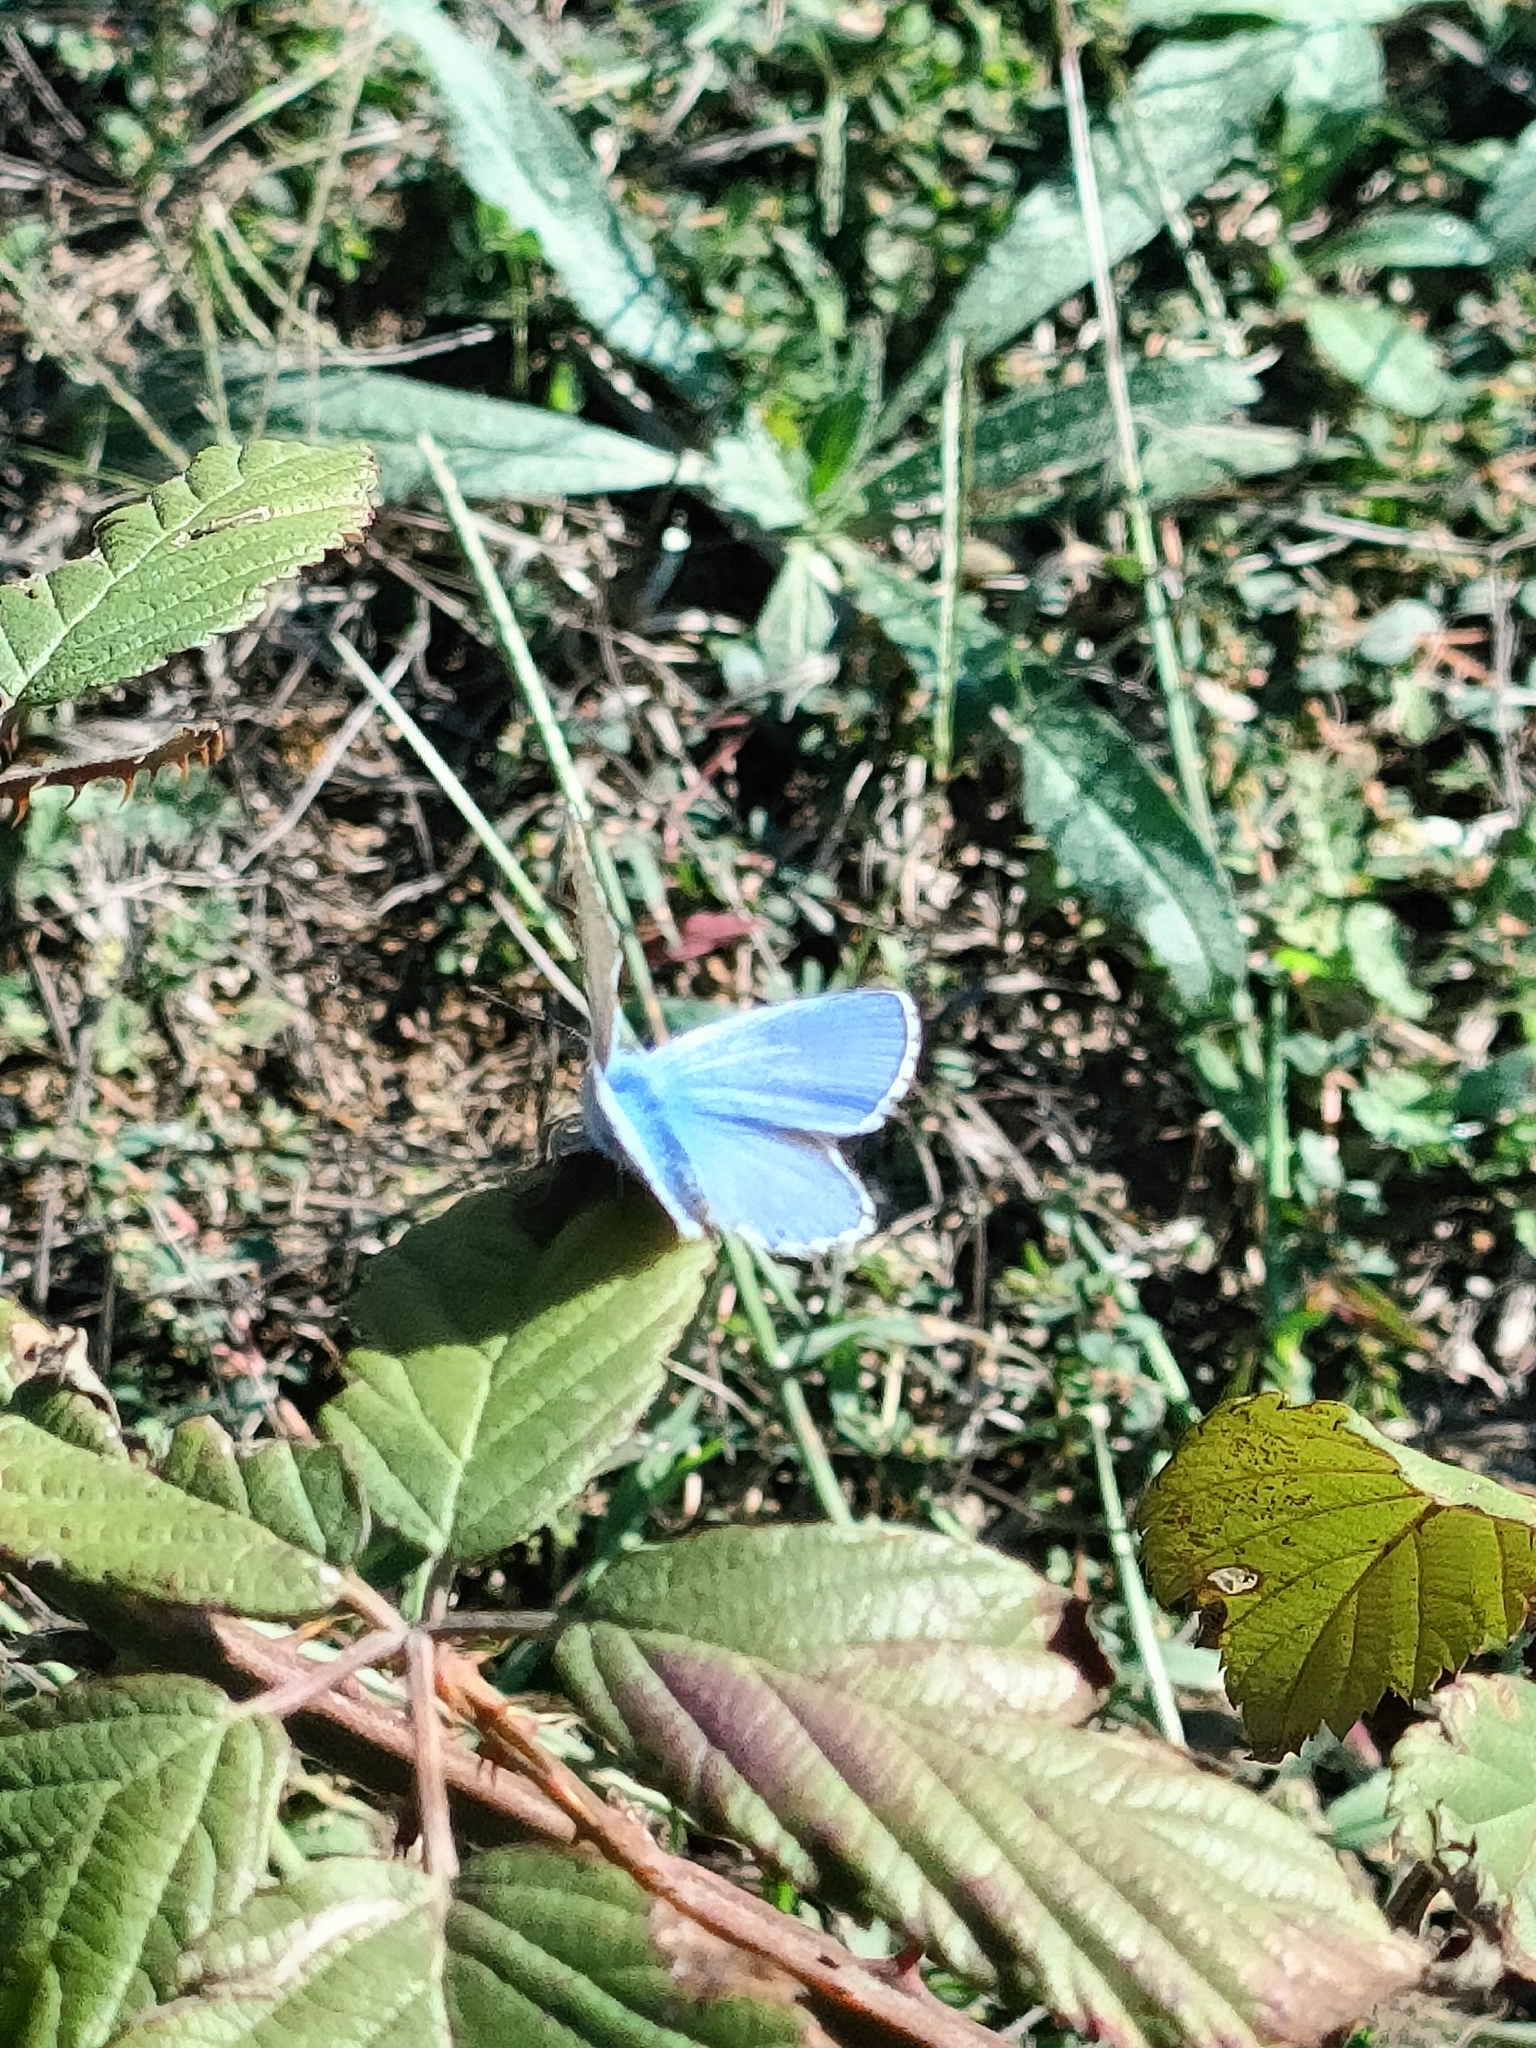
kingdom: Animalia
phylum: Arthropoda
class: Insecta
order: Lepidoptera
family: Lycaenidae
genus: Lysandra
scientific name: Lysandra bellargus
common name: Adonis blue
